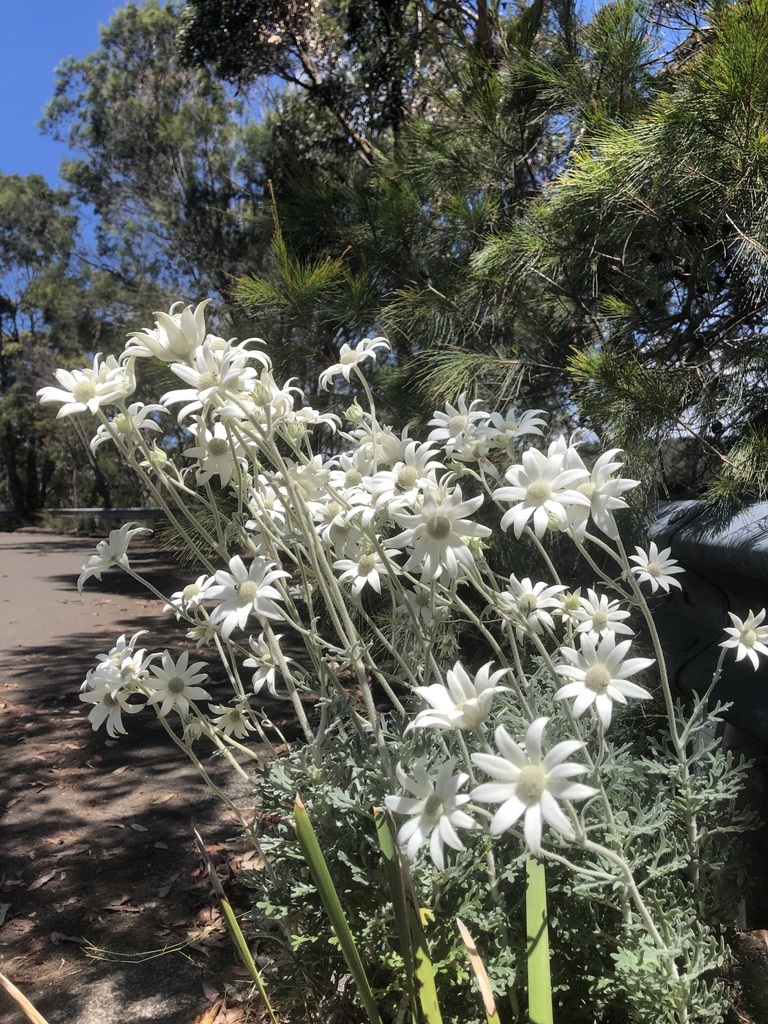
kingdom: Plantae
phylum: Tracheophyta
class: Magnoliopsida
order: Apiales
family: Apiaceae
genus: Actinotus
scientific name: Actinotus helianthi
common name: Flannel-flower
